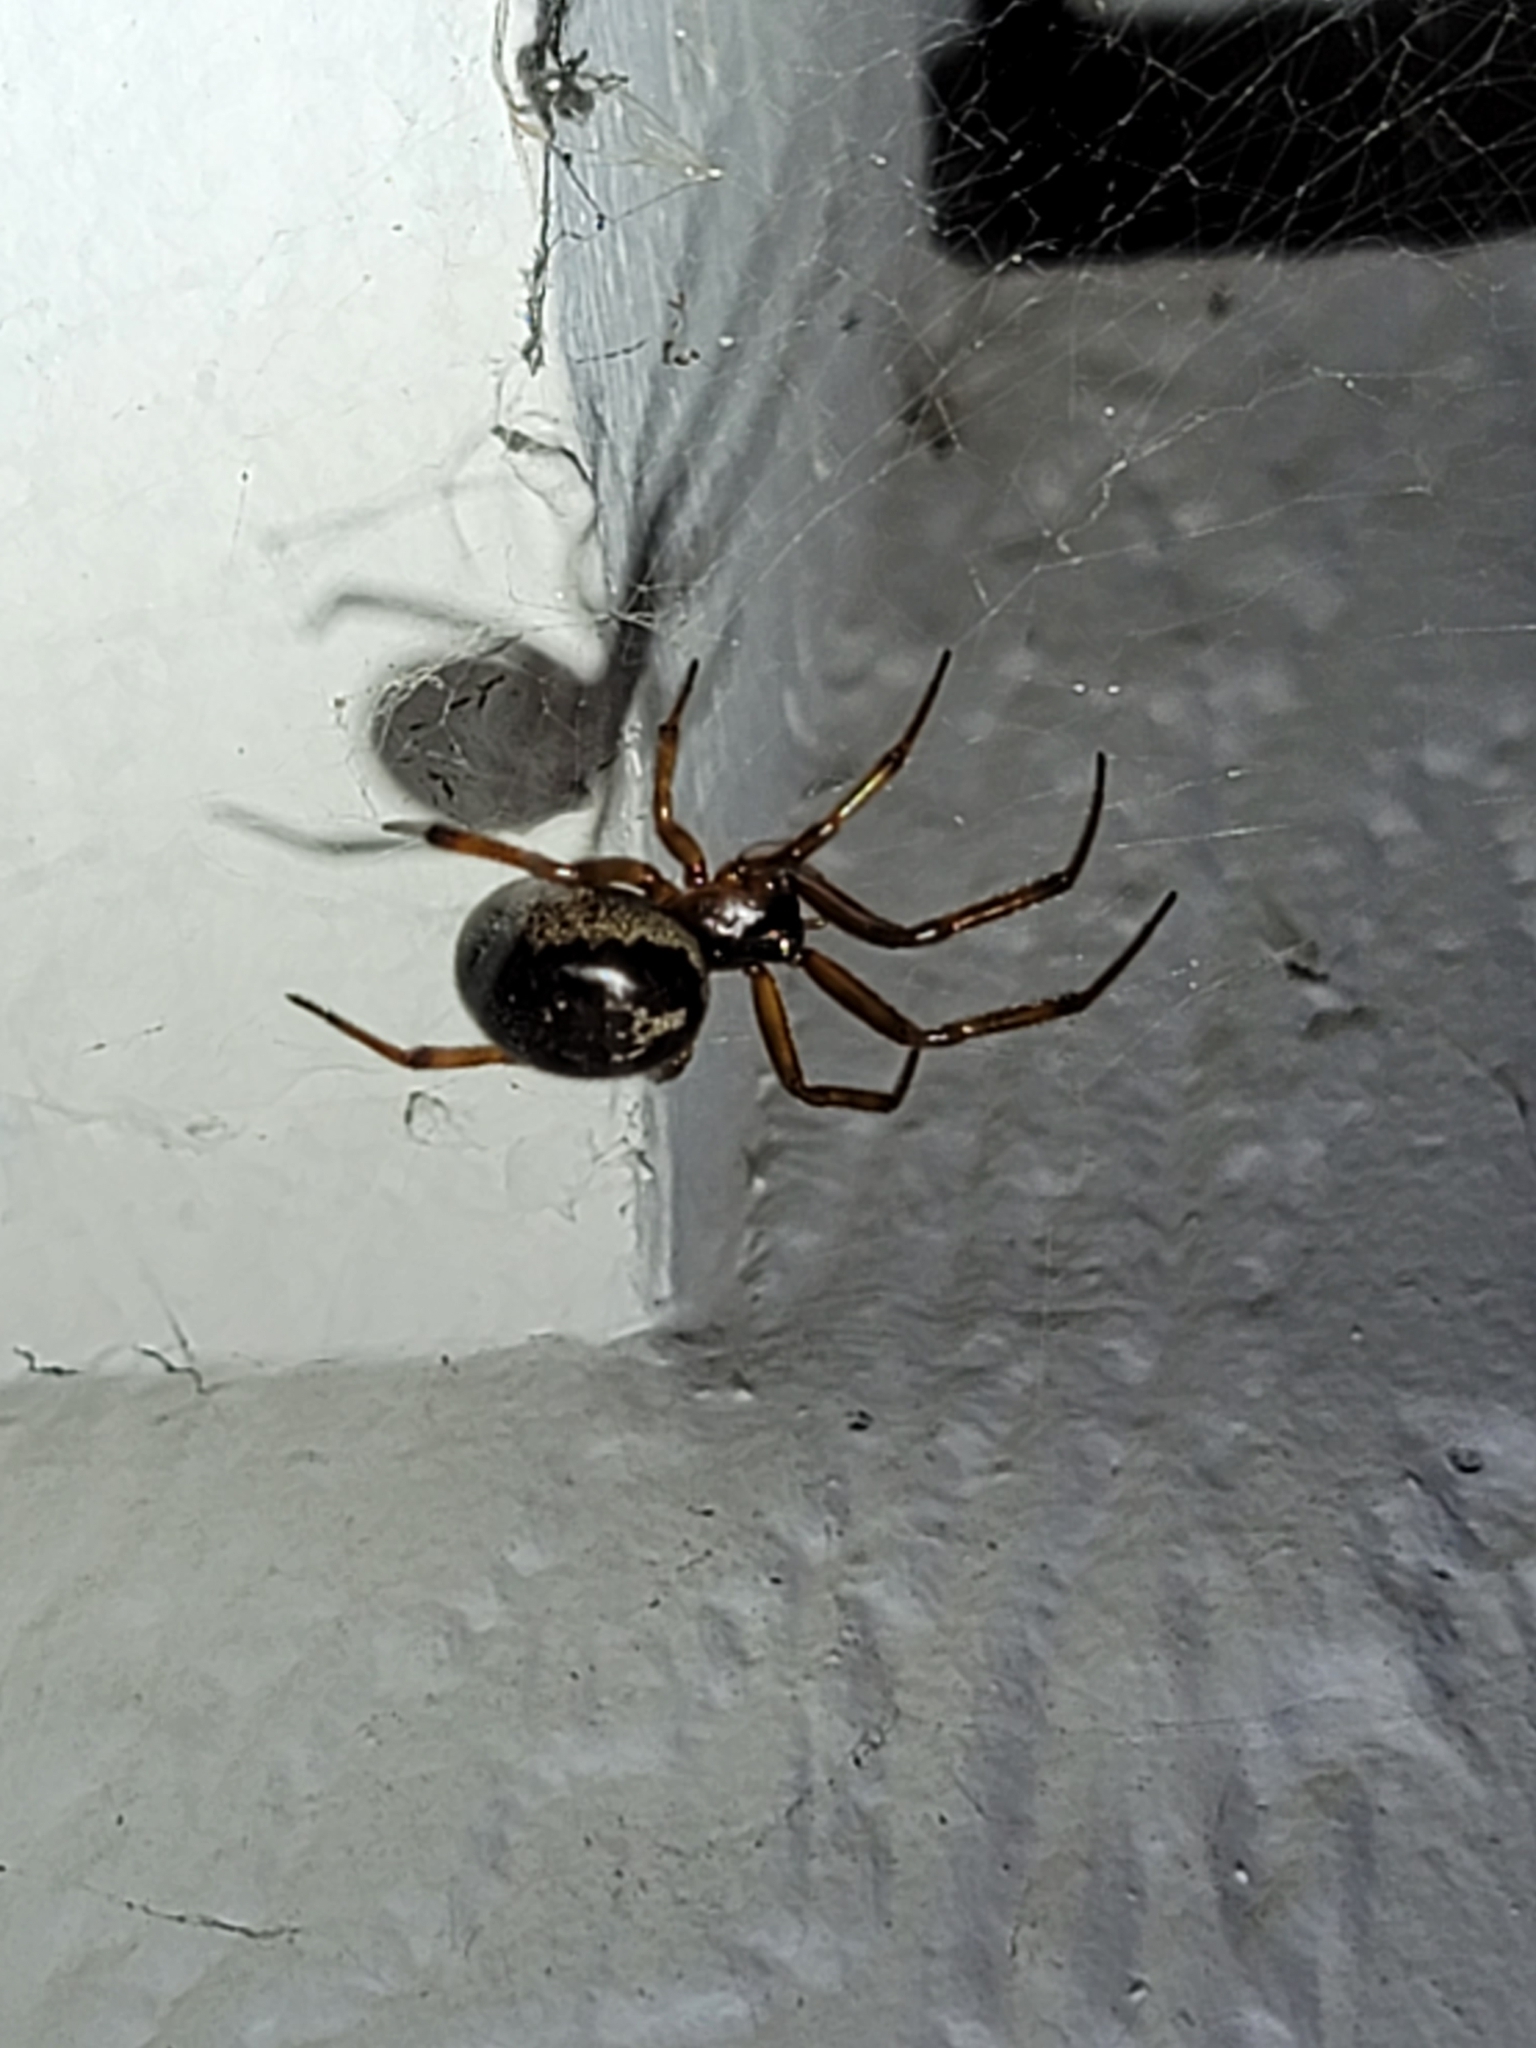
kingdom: Animalia
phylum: Arthropoda
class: Arachnida
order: Araneae
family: Theridiidae
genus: Steatoda
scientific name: Steatoda nobilis
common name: Cobweb weaver
